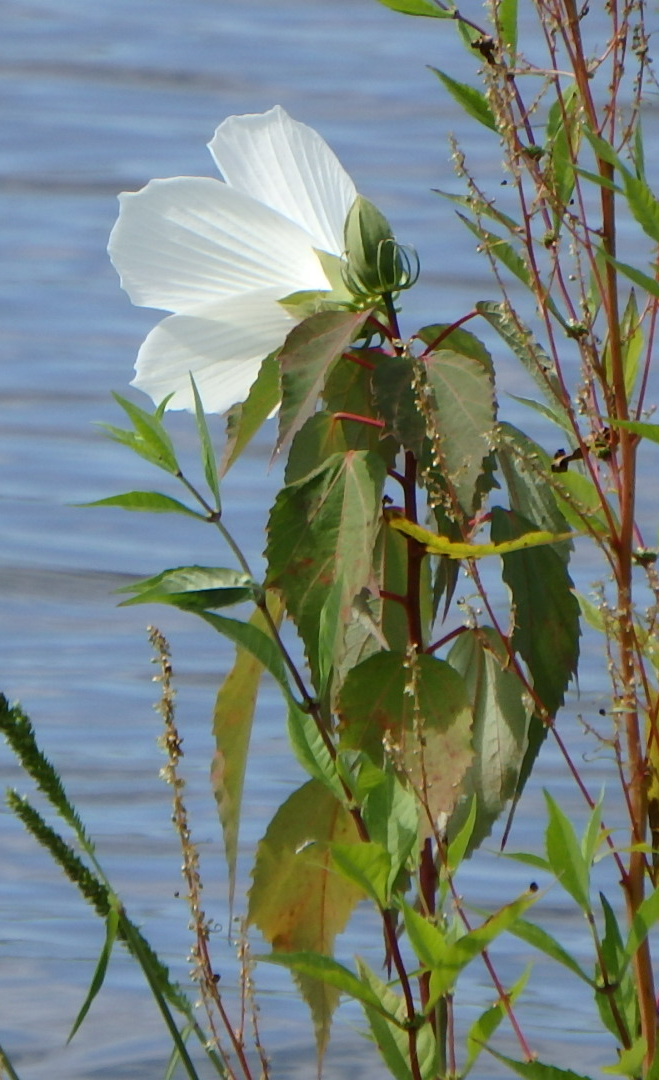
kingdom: Plantae
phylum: Tracheophyta
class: Magnoliopsida
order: Malvales
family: Malvaceae
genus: Hibiscus
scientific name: Hibiscus moscheutos
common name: Common rose-mallow
